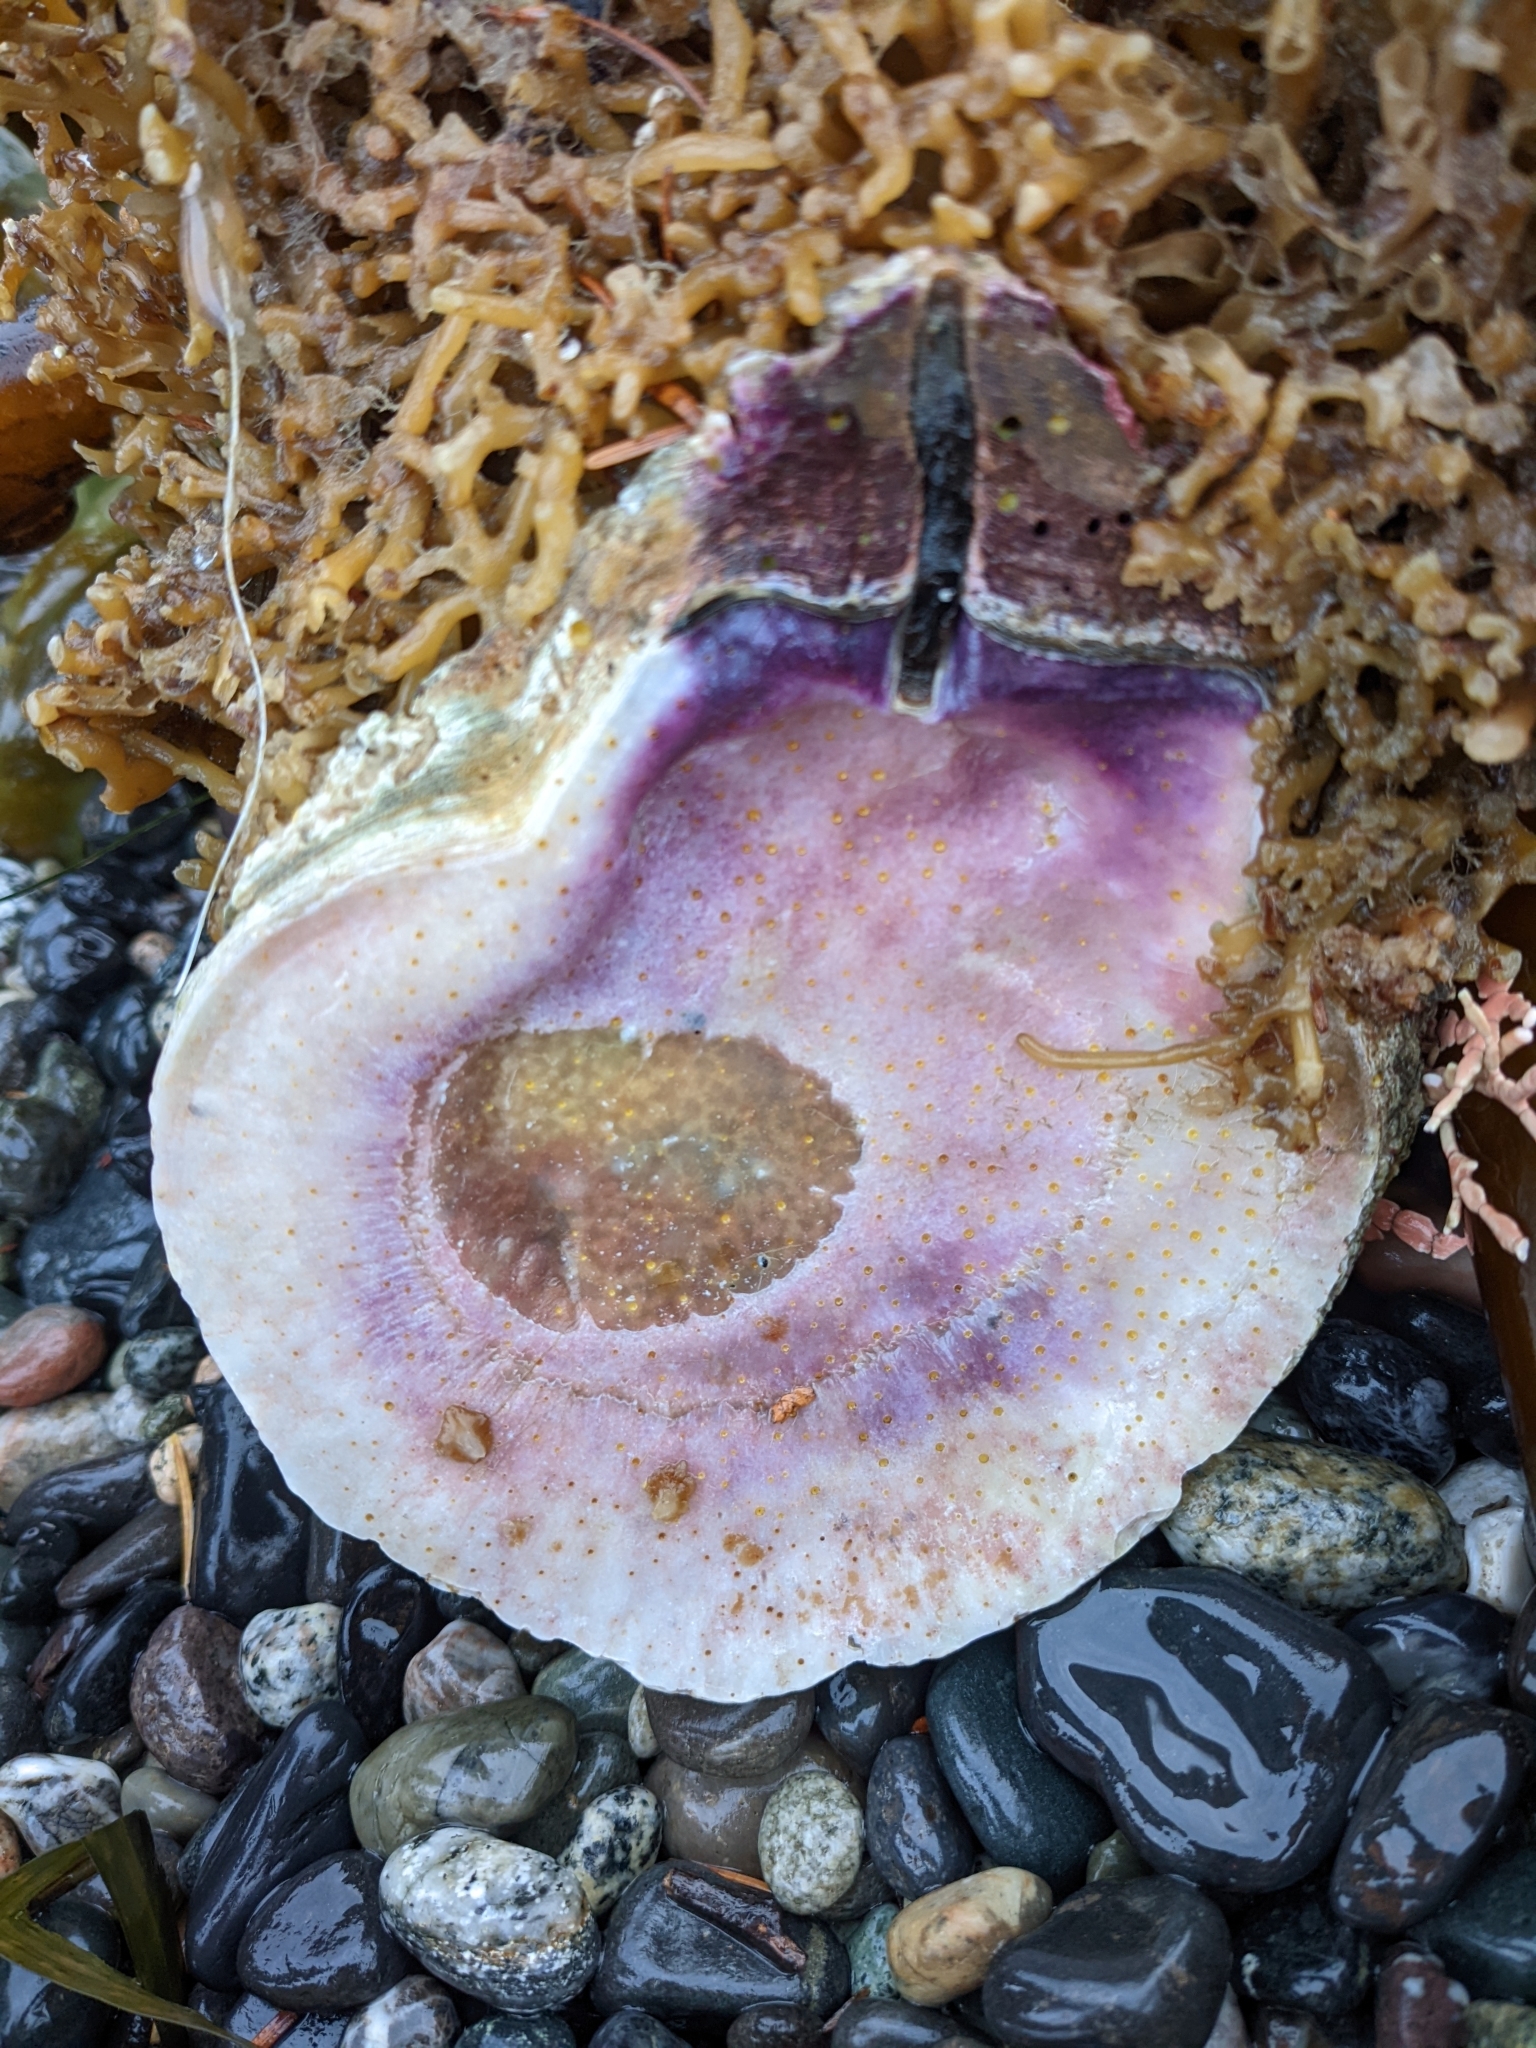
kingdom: Animalia
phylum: Mollusca
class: Bivalvia
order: Pectinida
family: Pectinidae
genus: Crassadoma
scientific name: Crassadoma gigantea
